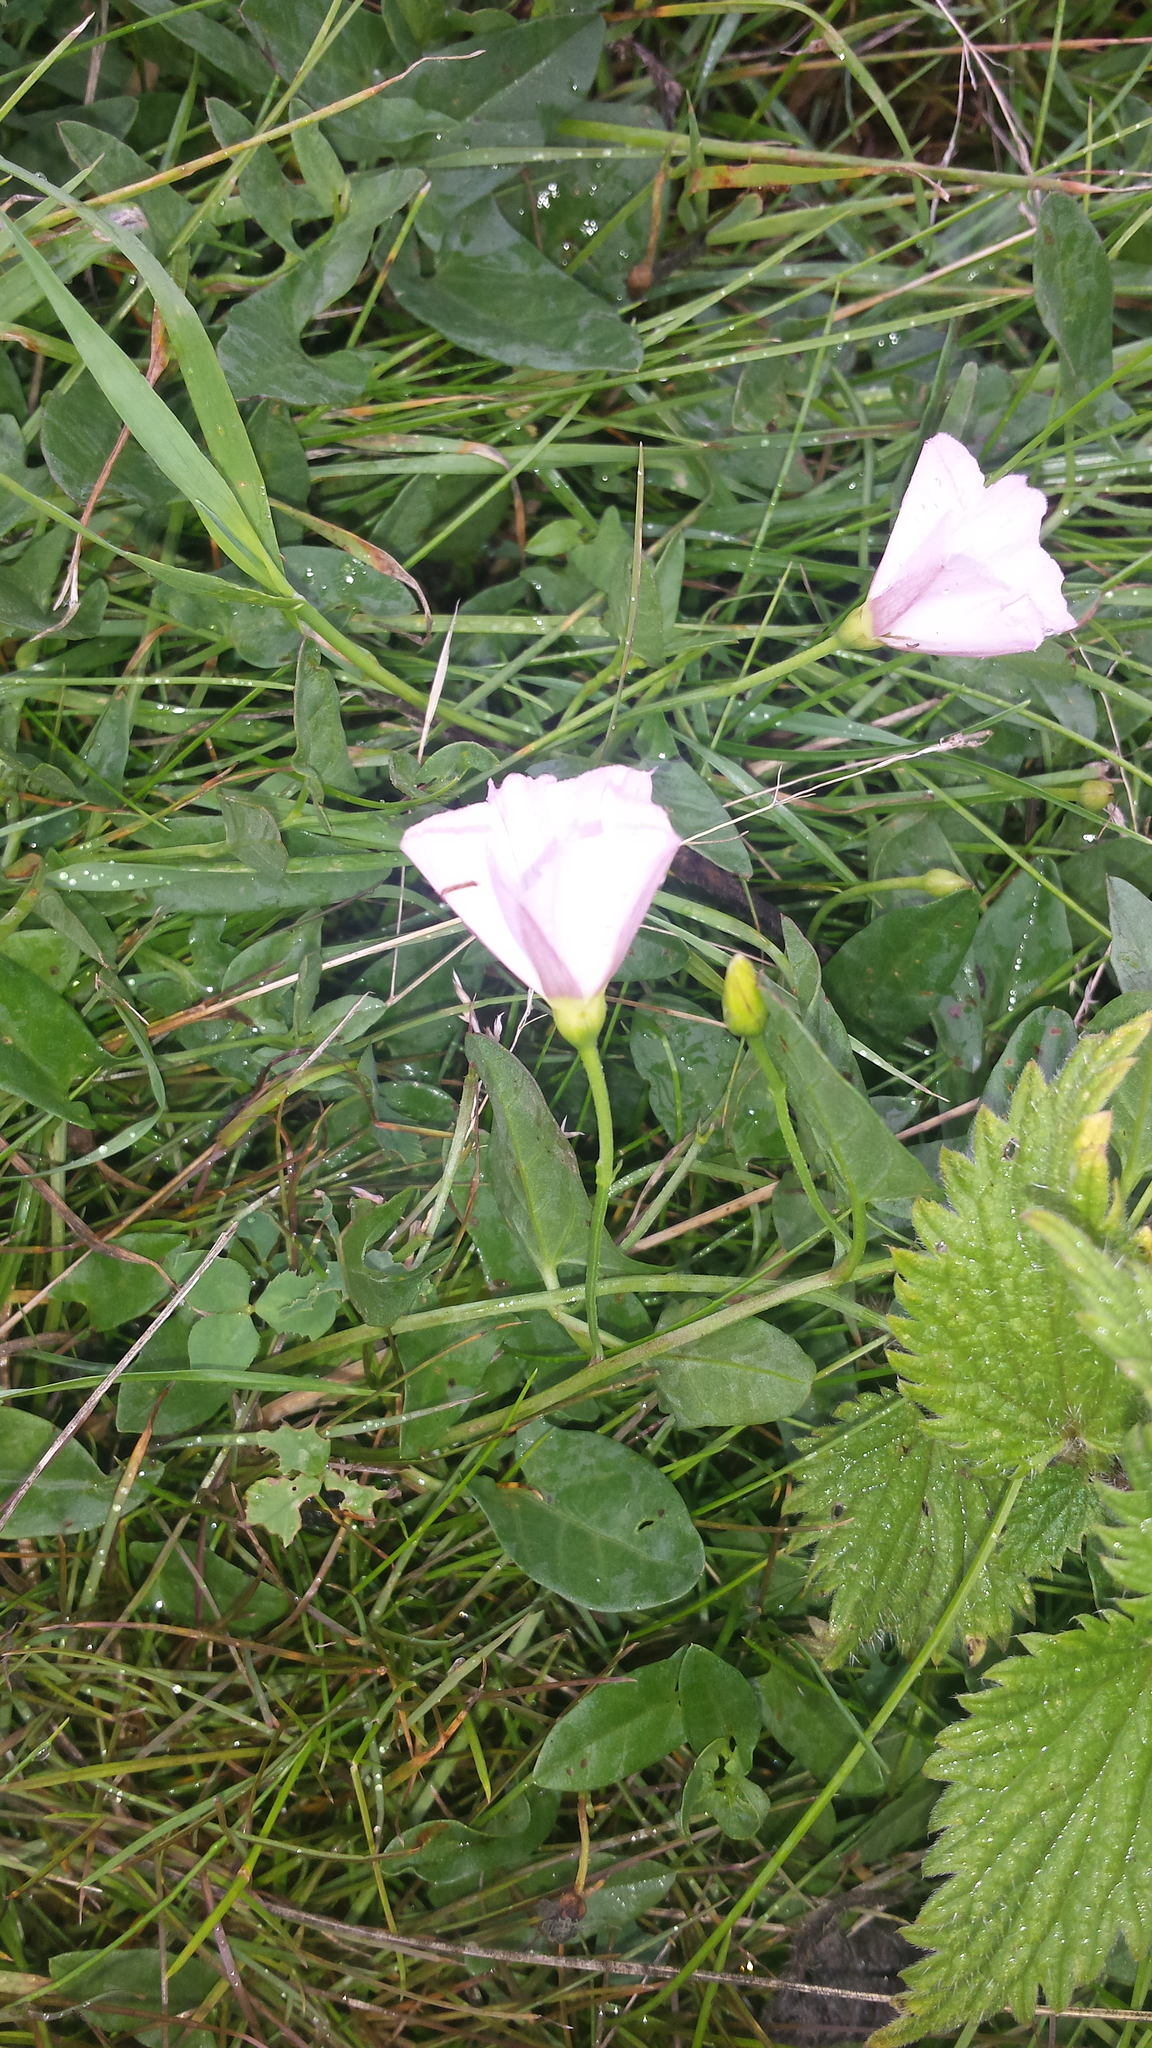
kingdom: Plantae
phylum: Tracheophyta
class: Magnoliopsida
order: Solanales
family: Convolvulaceae
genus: Convolvulus
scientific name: Convolvulus arvensis
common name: Field bindweed
